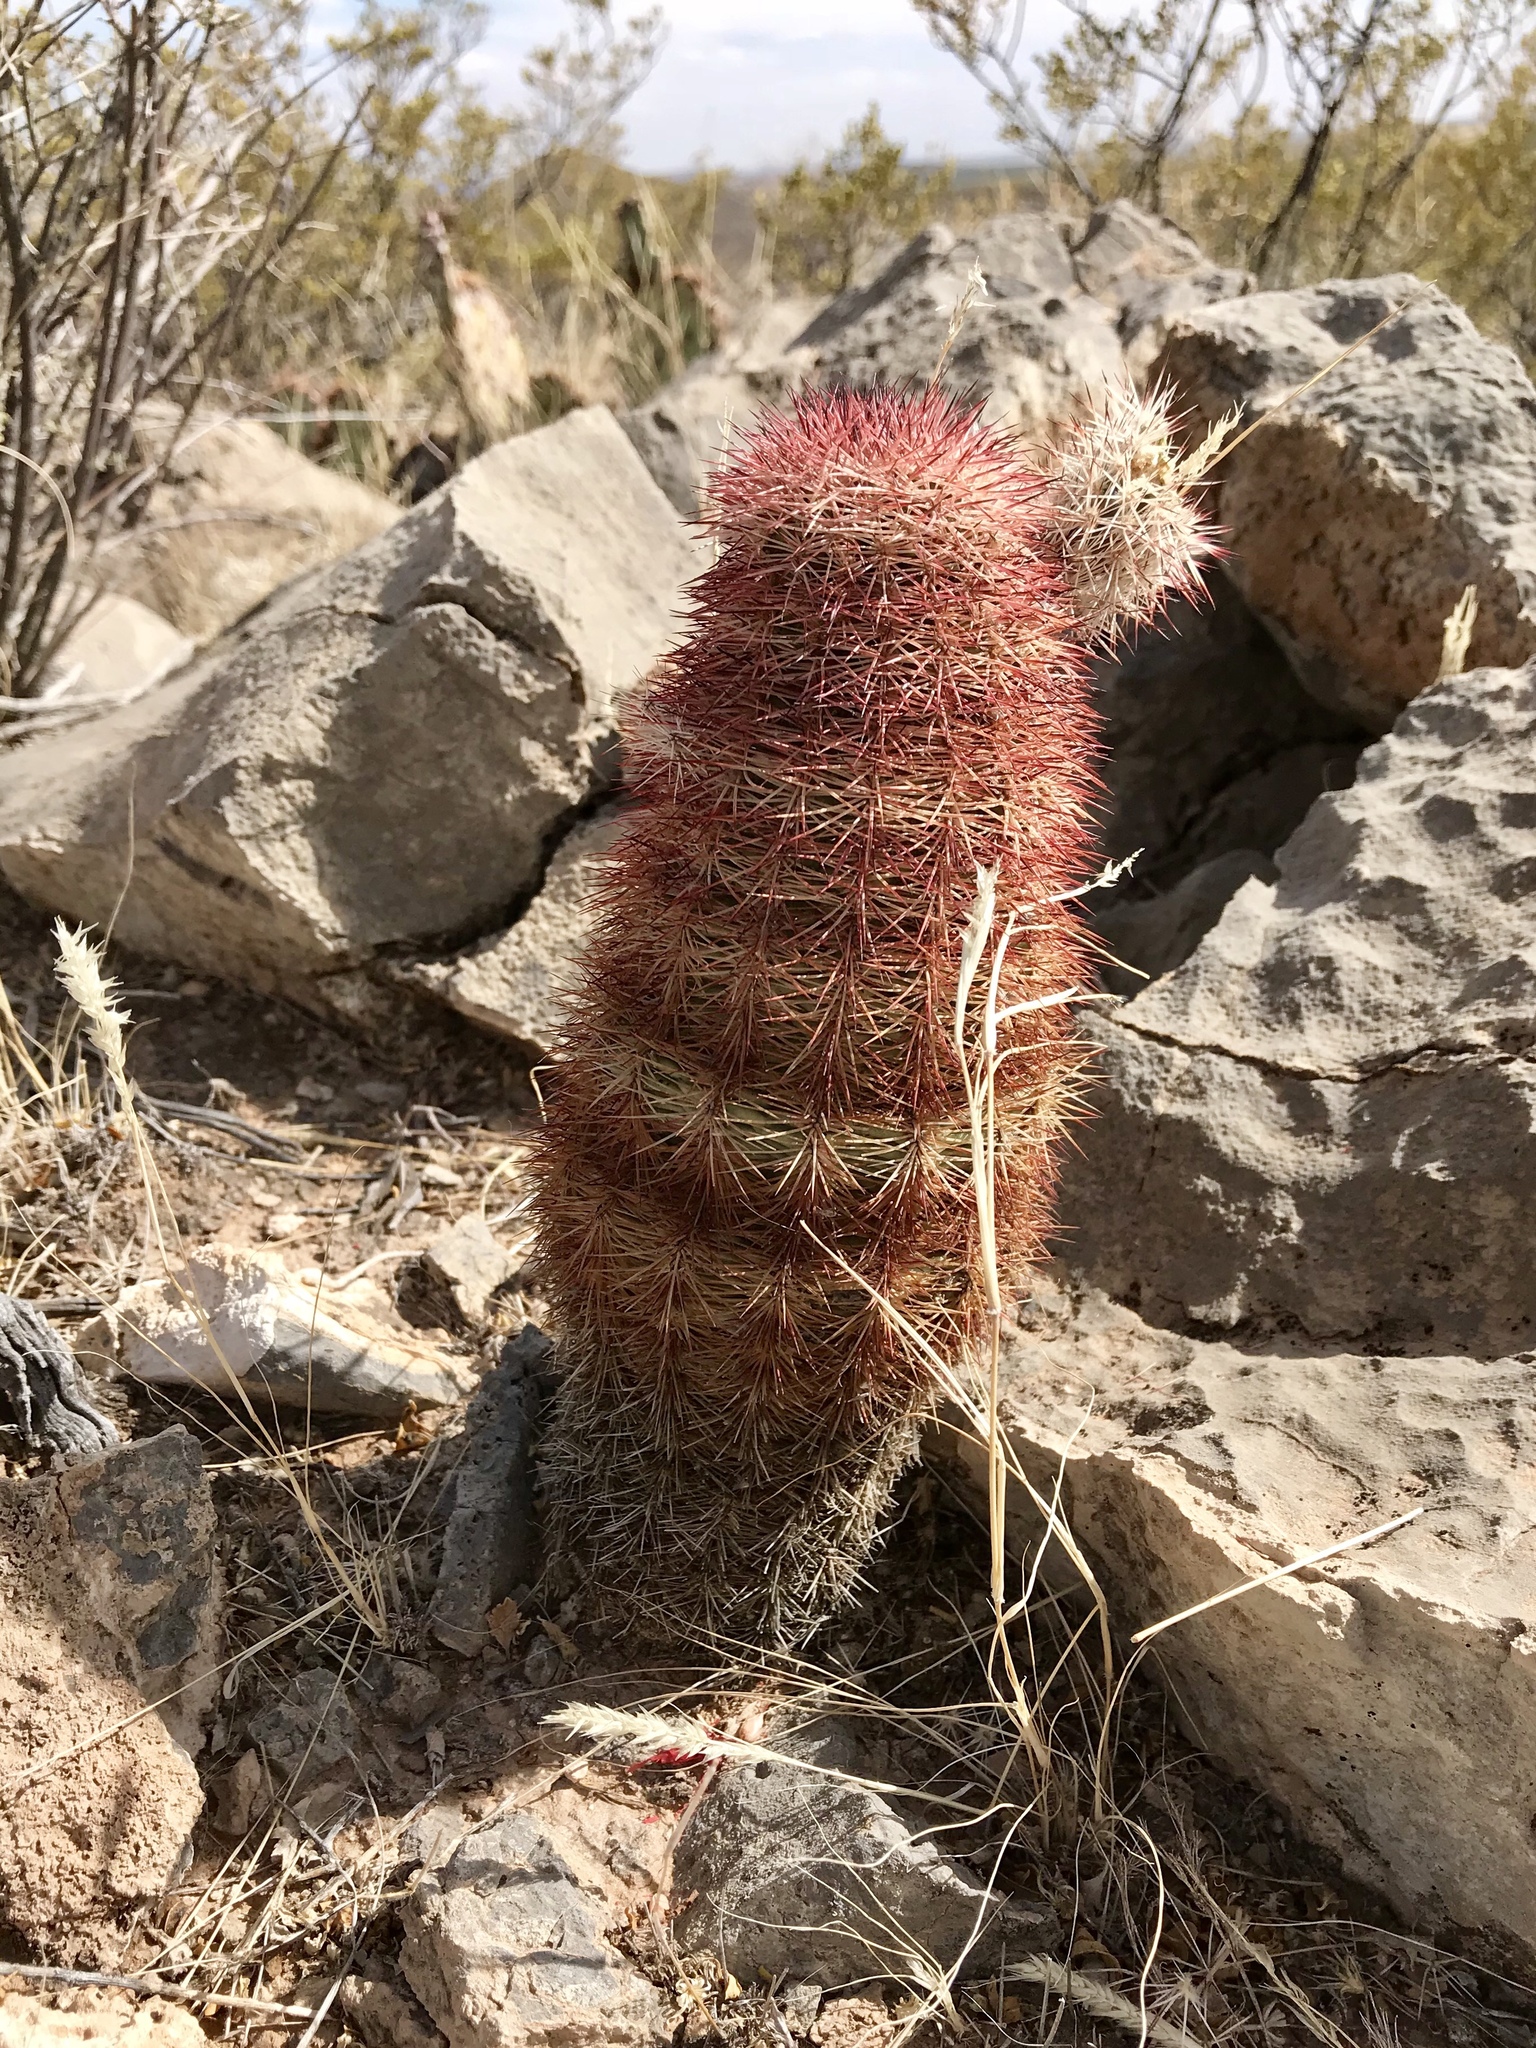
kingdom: Plantae
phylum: Tracheophyta
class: Magnoliopsida
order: Caryophyllales
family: Cactaceae
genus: Echinocereus
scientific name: Echinocereus dasyacanthus
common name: Spiny hedgehog cactus
